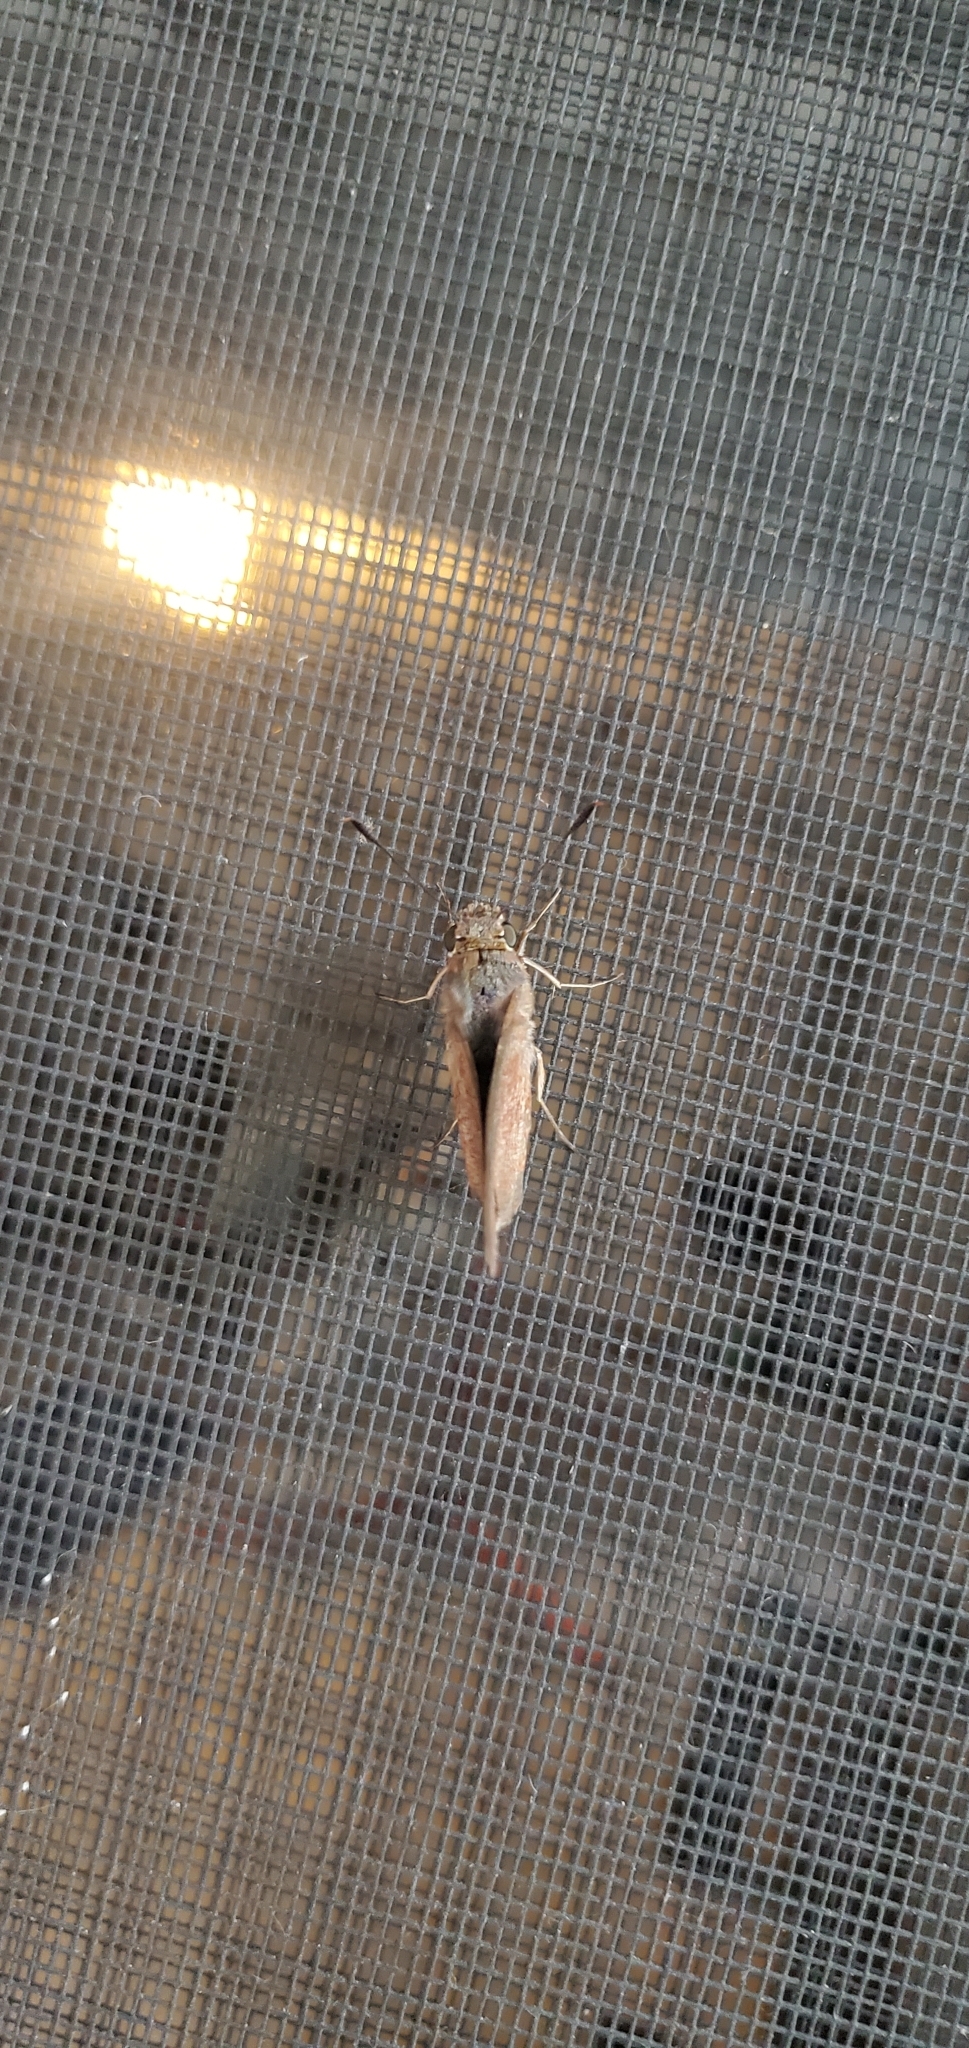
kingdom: Animalia
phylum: Arthropoda
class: Insecta
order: Lepidoptera
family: Hesperiidae
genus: Asbolis
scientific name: Asbolis capucinus
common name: Monk skipper
